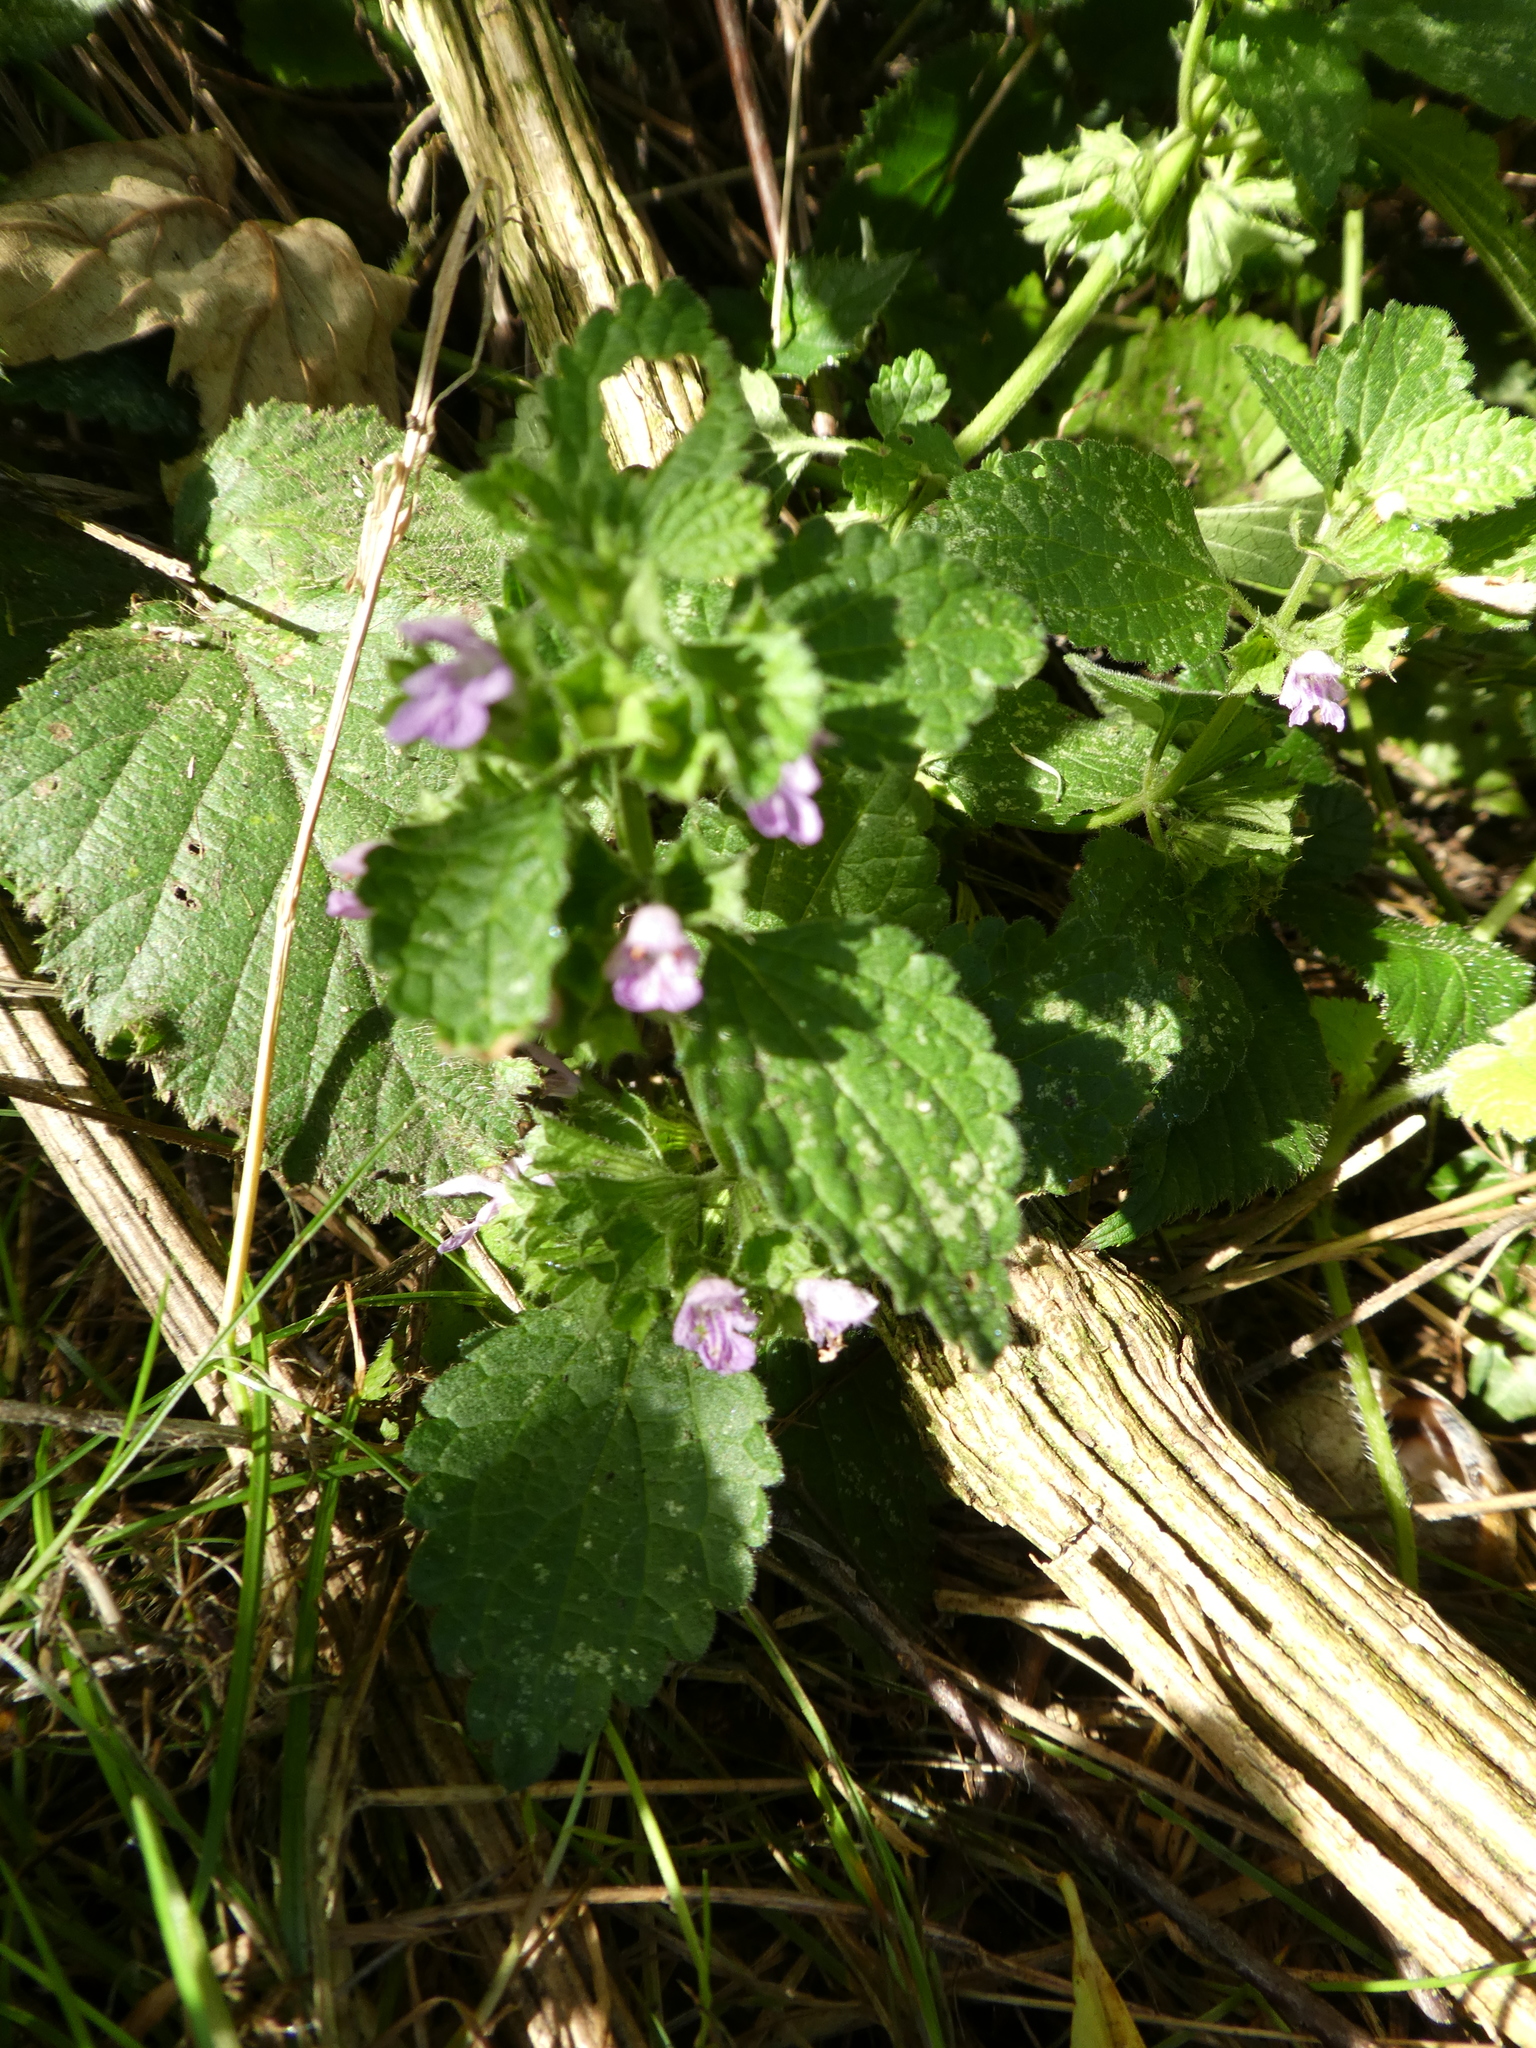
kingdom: Plantae
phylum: Tracheophyta
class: Magnoliopsida
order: Lamiales
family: Lamiaceae
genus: Ballota
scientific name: Ballota nigra
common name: Black horehound
